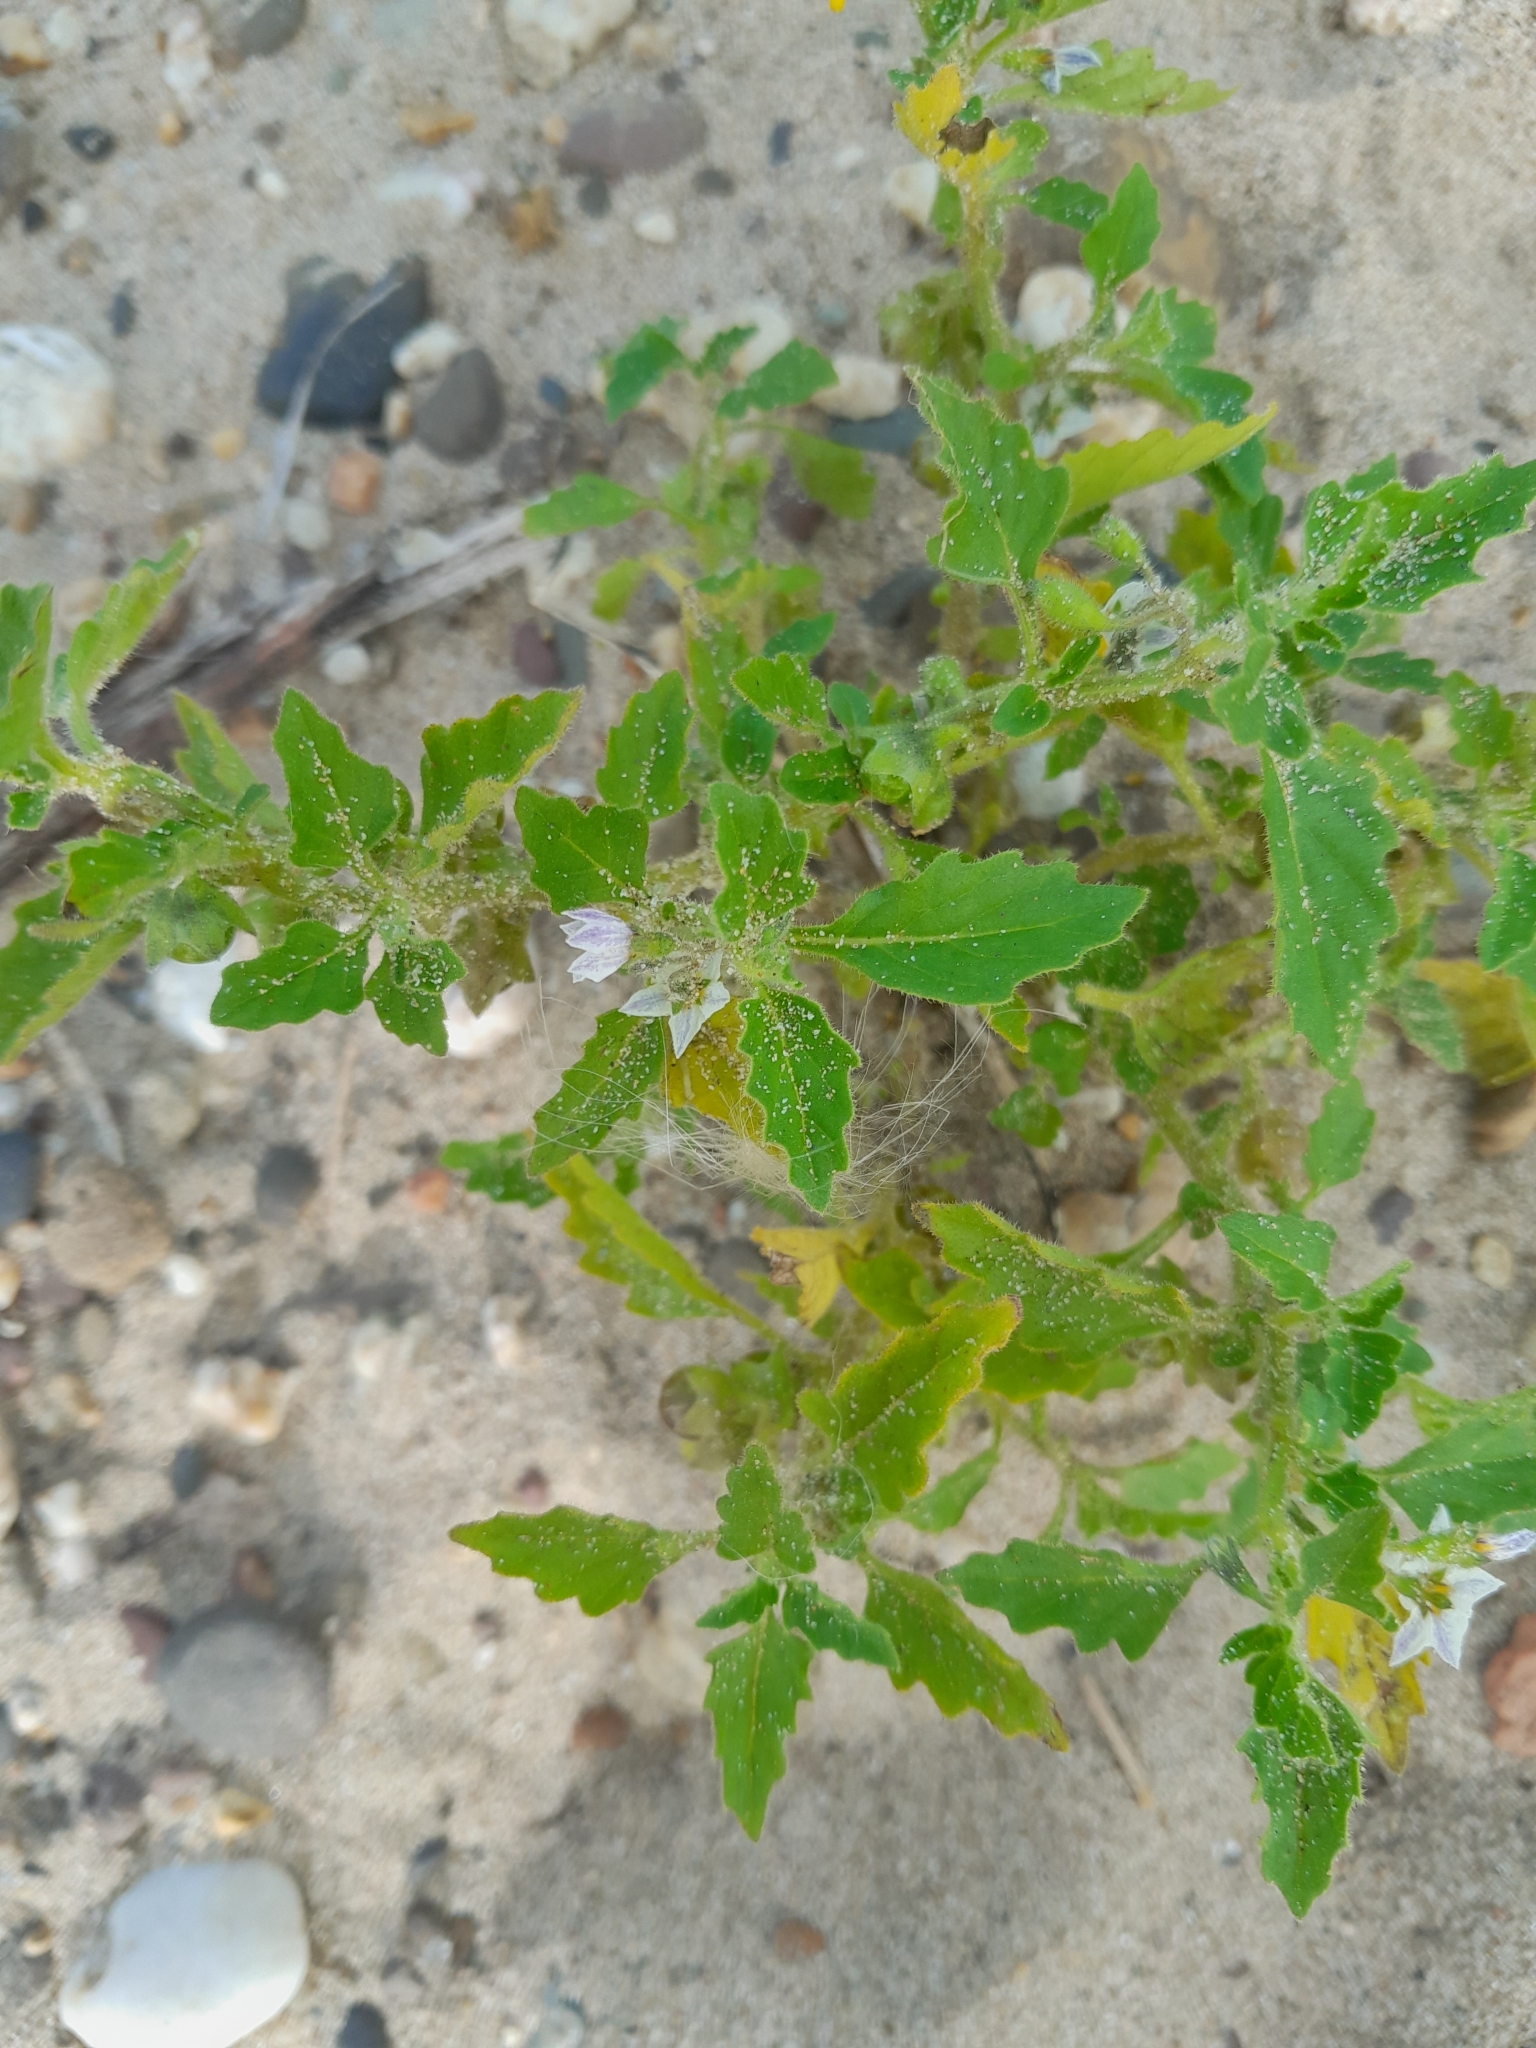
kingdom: Plantae
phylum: Tracheophyta
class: Magnoliopsida
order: Solanales
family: Solanaceae
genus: Solanum
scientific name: Solanum nitidibaccatum
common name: Hairy nightshade
